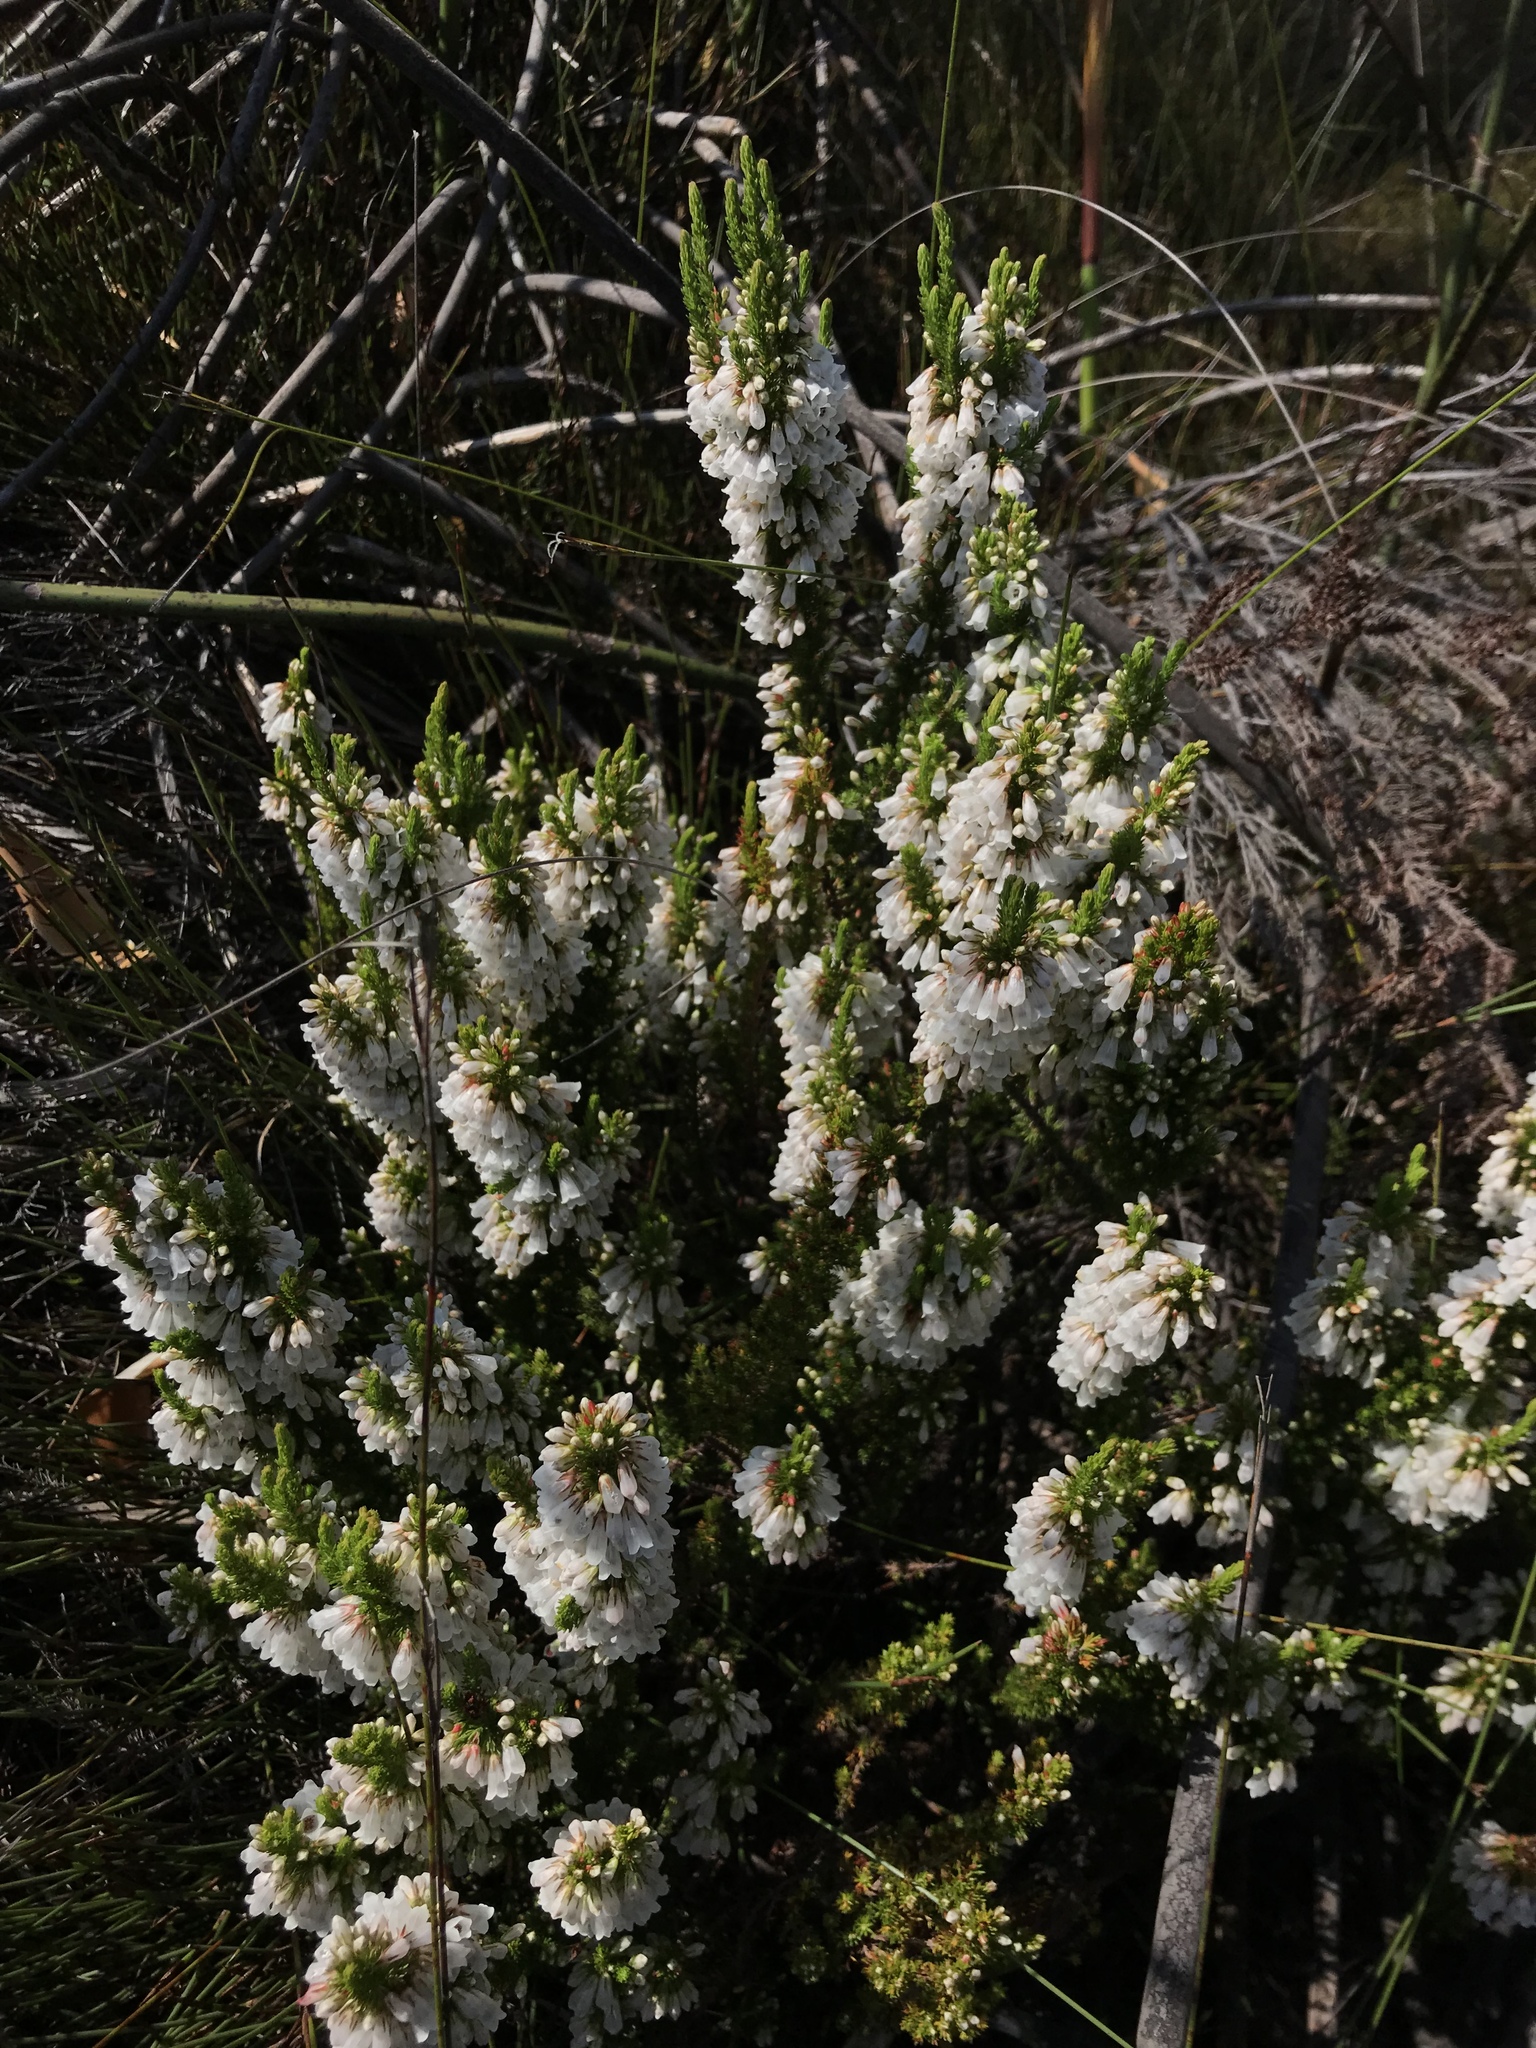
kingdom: Plantae
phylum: Tracheophyta
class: Magnoliopsida
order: Ericales
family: Ericaceae
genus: Erica
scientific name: Erica plena
